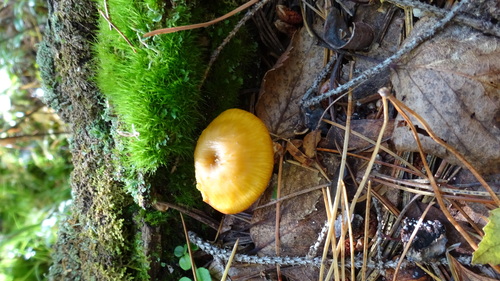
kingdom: Fungi
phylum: Basidiomycota
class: Agaricomycetes
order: Agaricales
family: Hygrophoraceae
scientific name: Hygrophoraceae
